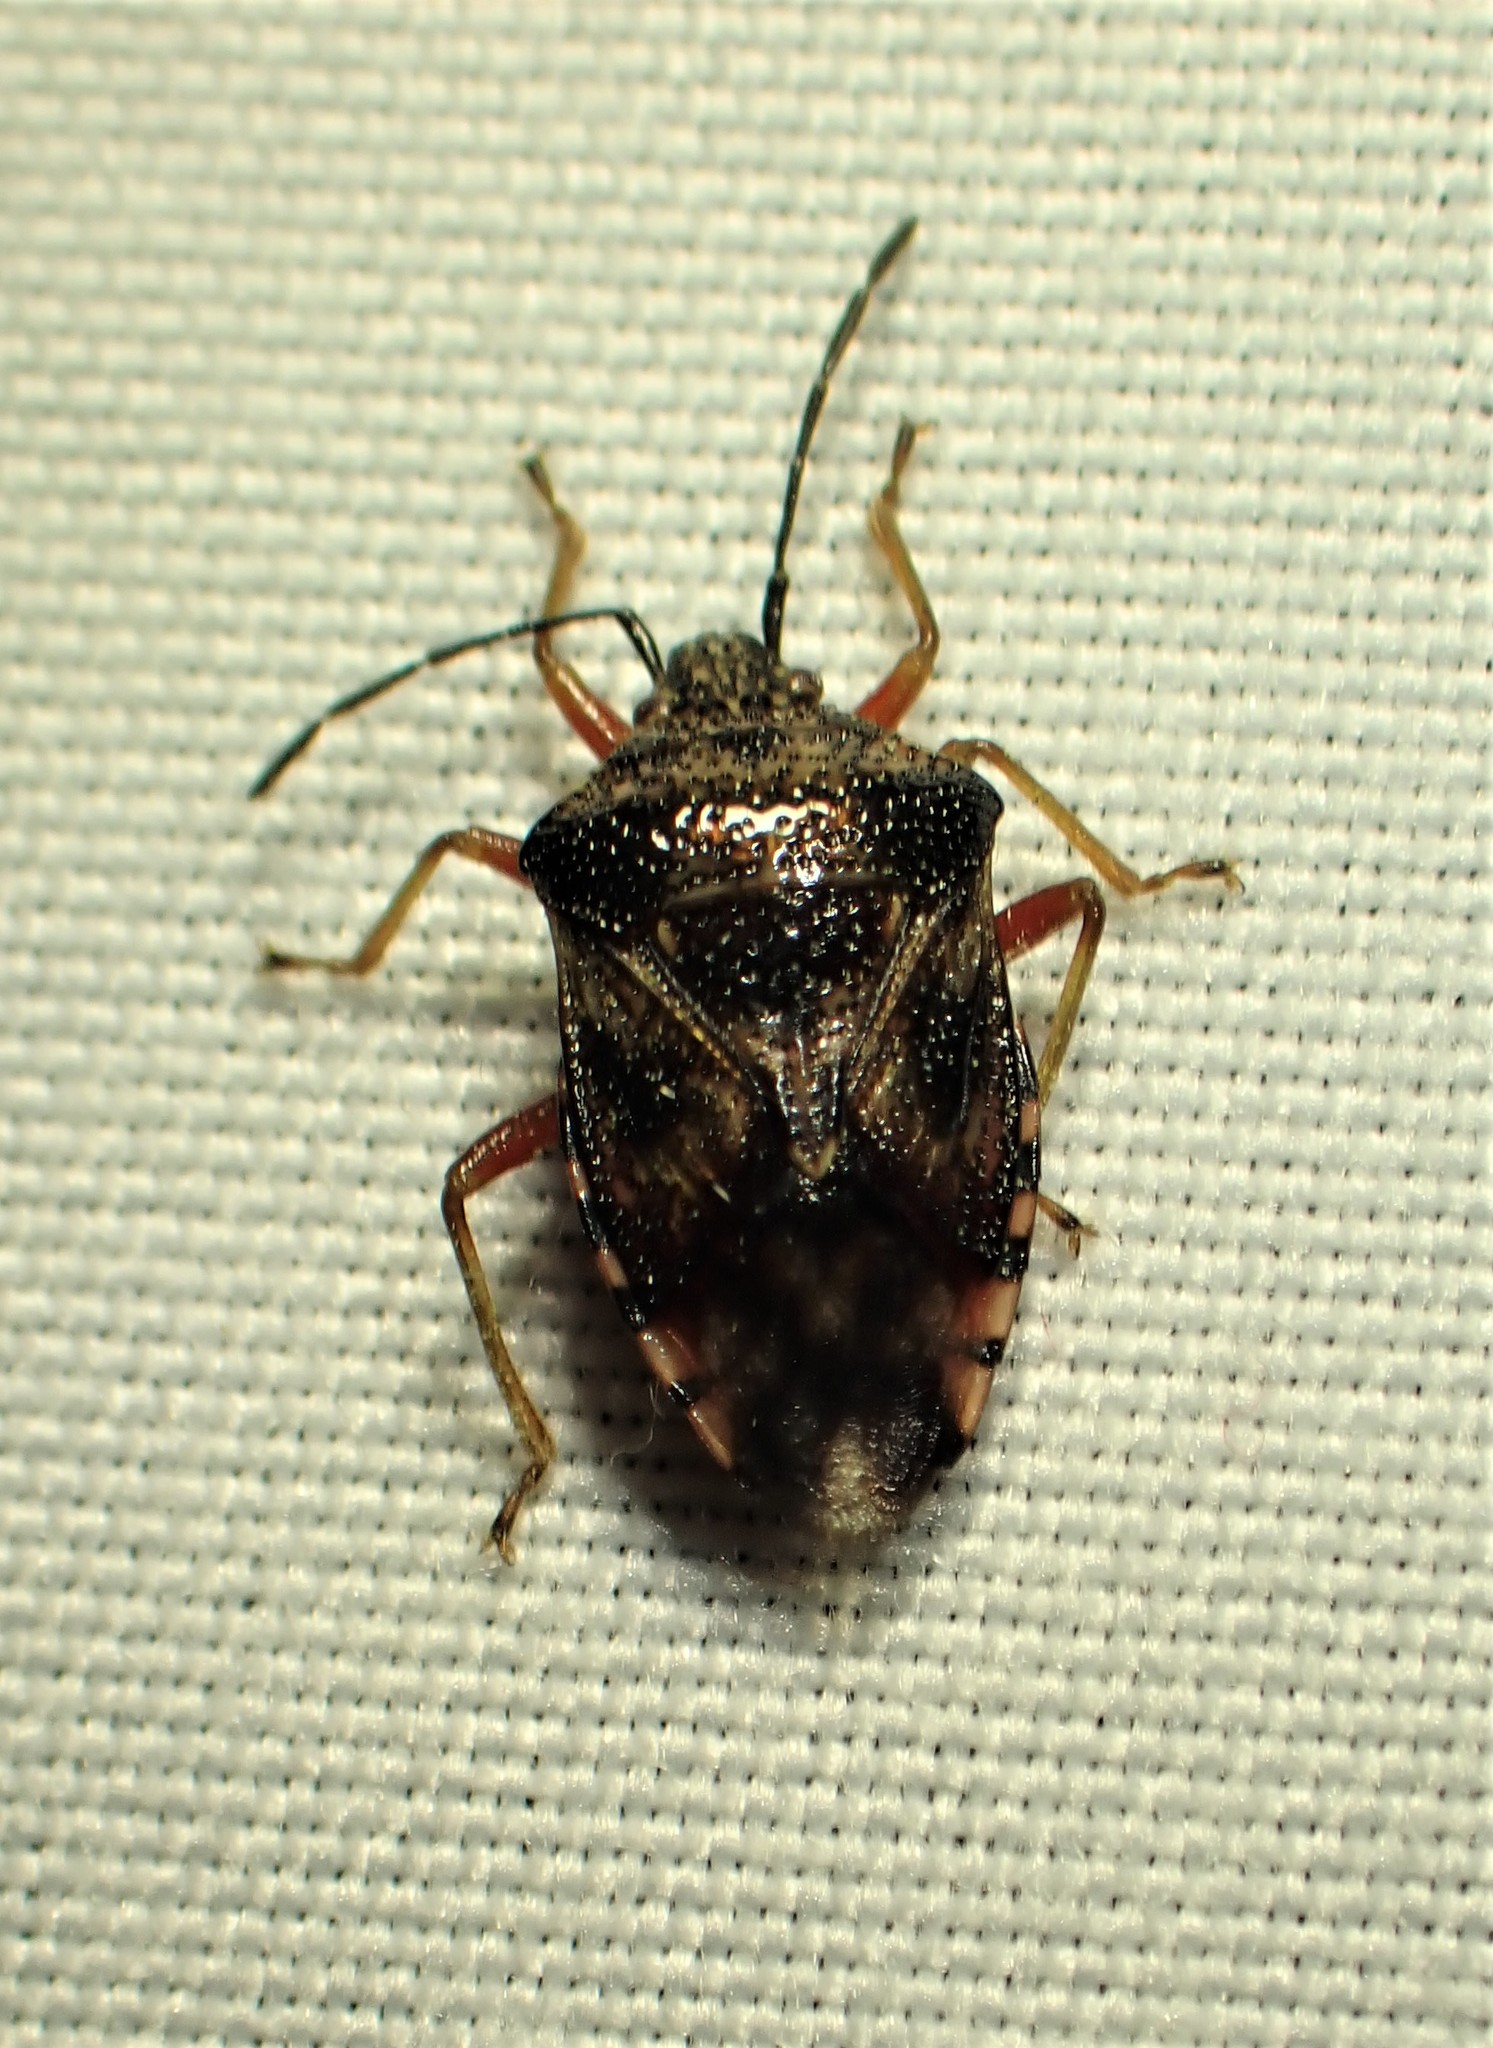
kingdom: Animalia
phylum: Arthropoda
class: Insecta
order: Hemiptera
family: Acanthosomatidae
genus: Elasmucha
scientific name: Elasmucha lateralis
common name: Shield bug
